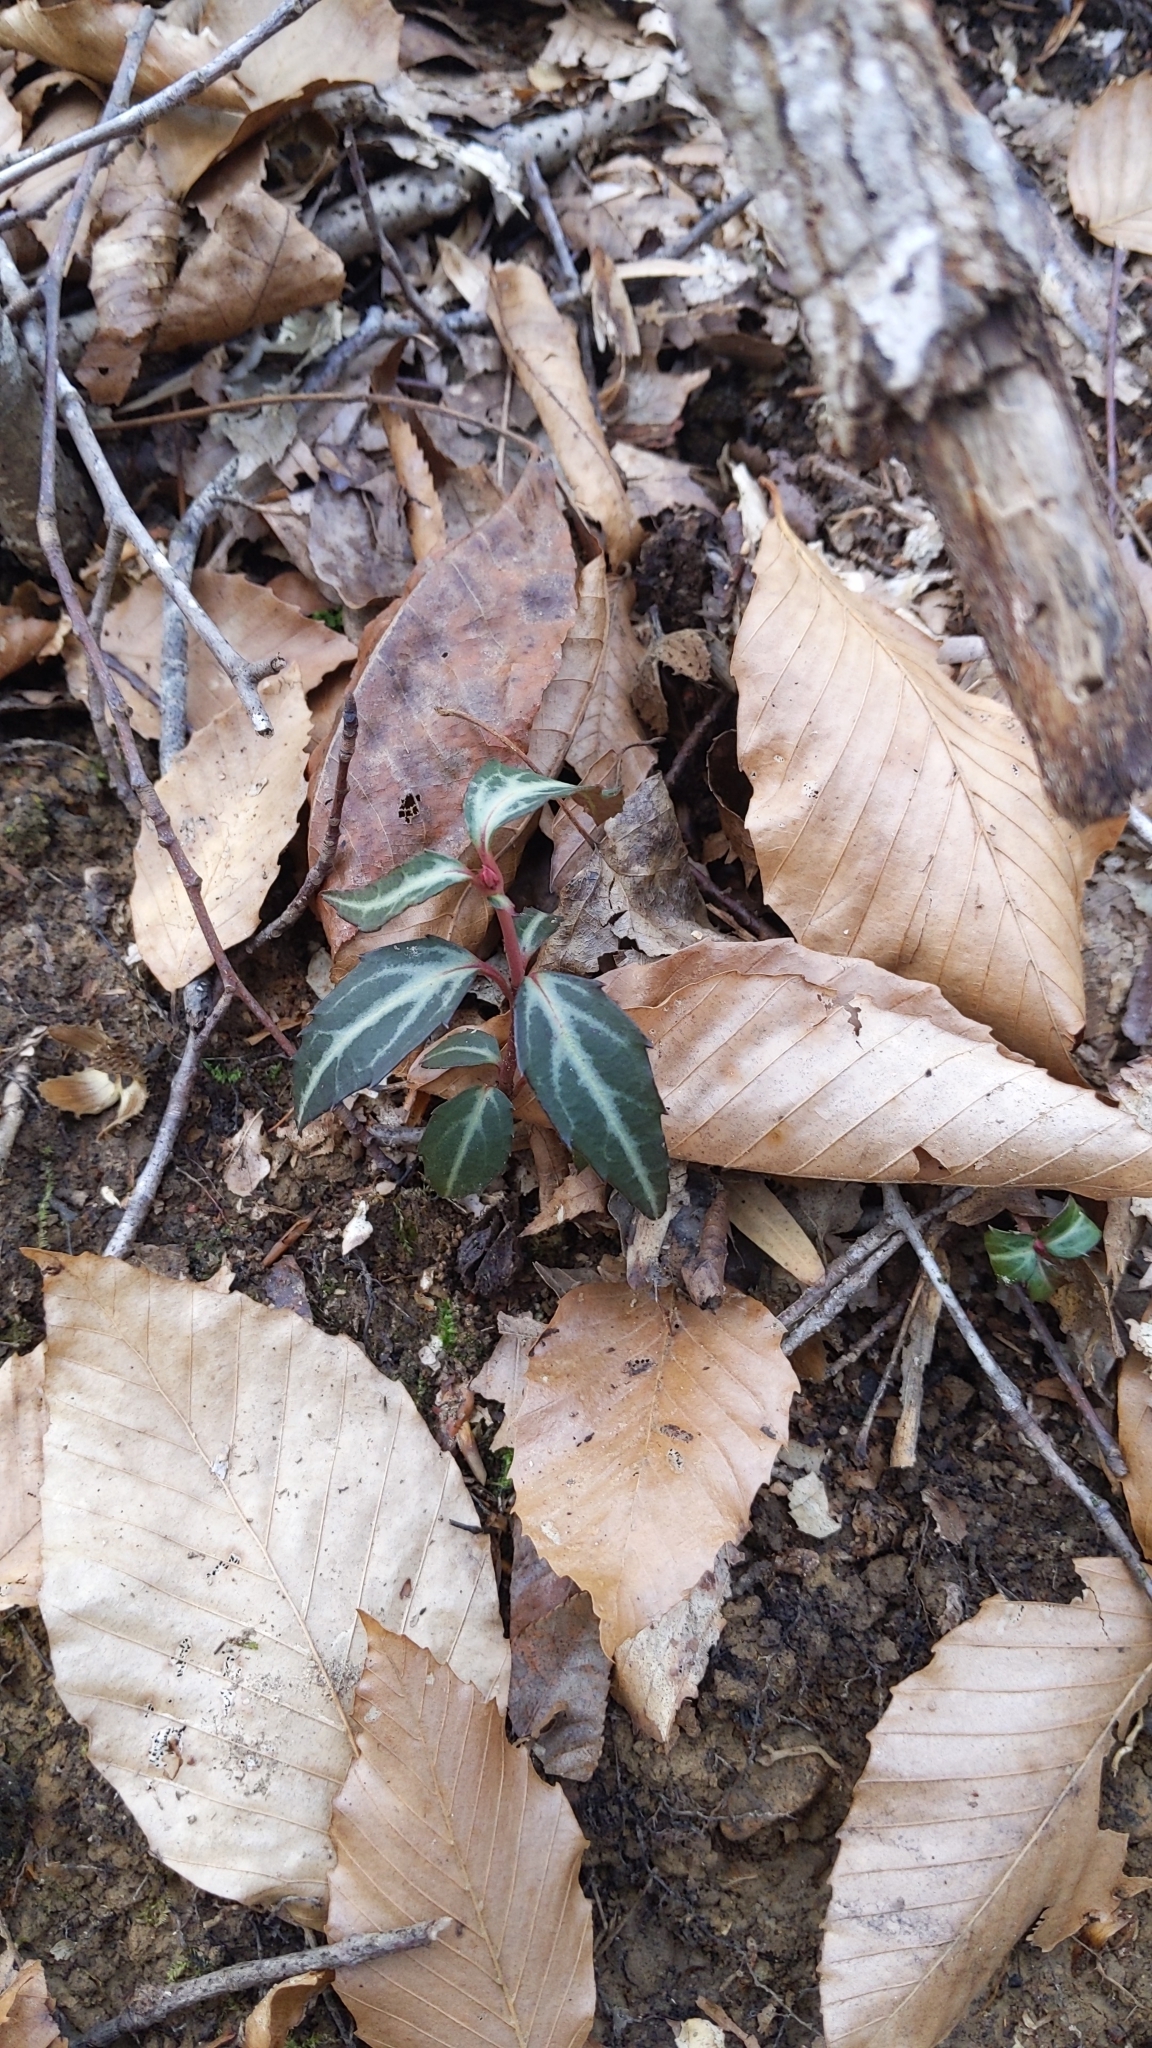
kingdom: Plantae
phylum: Tracheophyta
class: Magnoliopsida
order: Ericales
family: Ericaceae
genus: Chimaphila
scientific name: Chimaphila maculata
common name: Spotted pipsissewa
